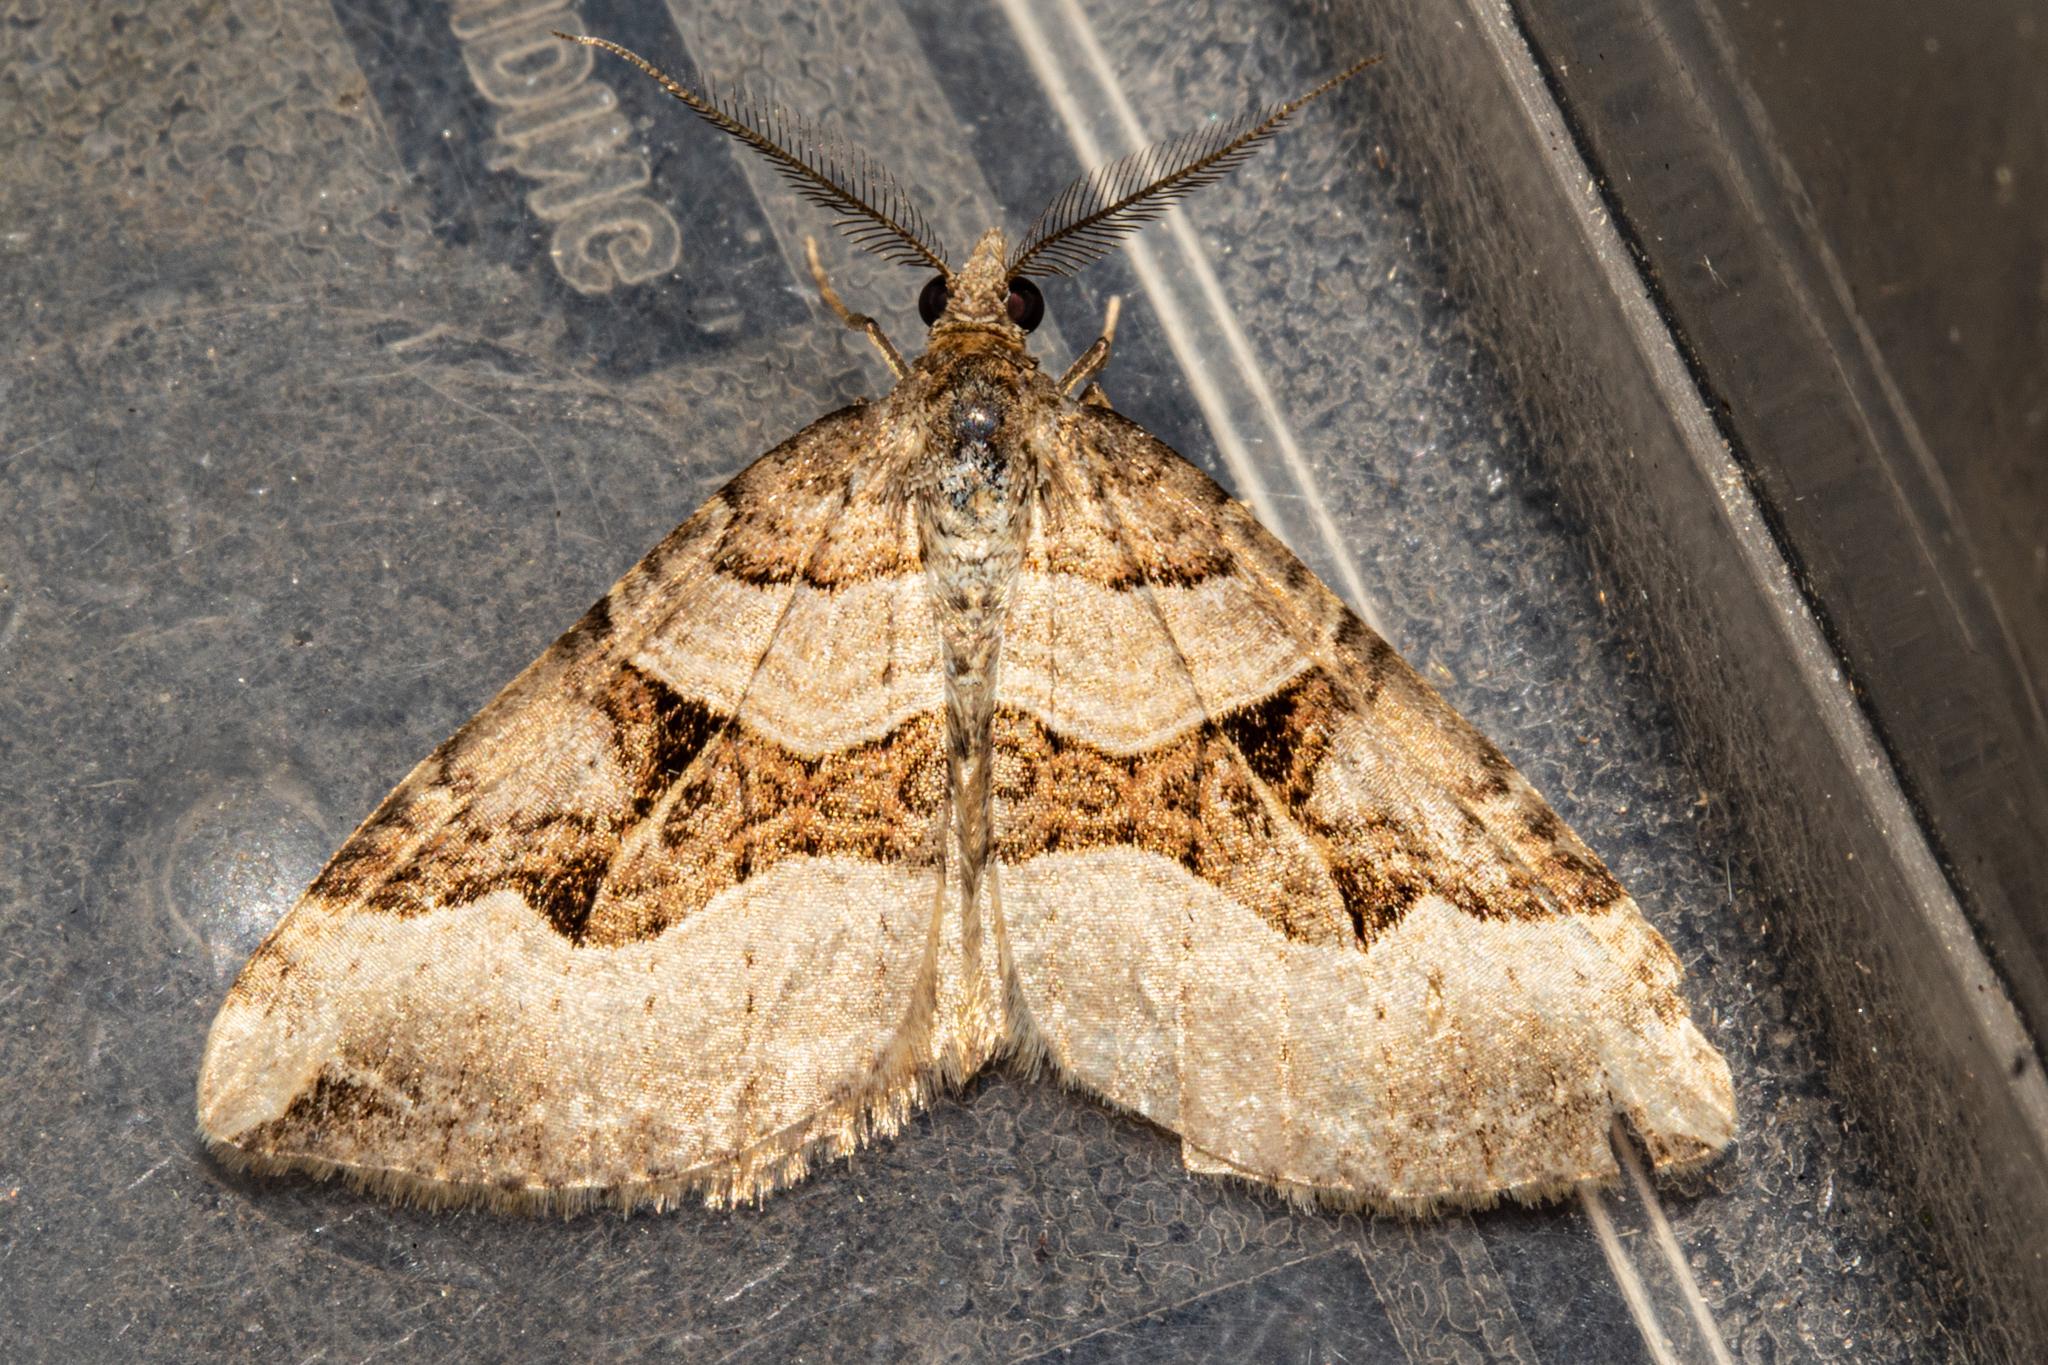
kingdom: Animalia
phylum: Arthropoda
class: Insecta
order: Lepidoptera
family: Geometridae
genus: Xanthorhoe
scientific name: Xanthorhoe semifissata
